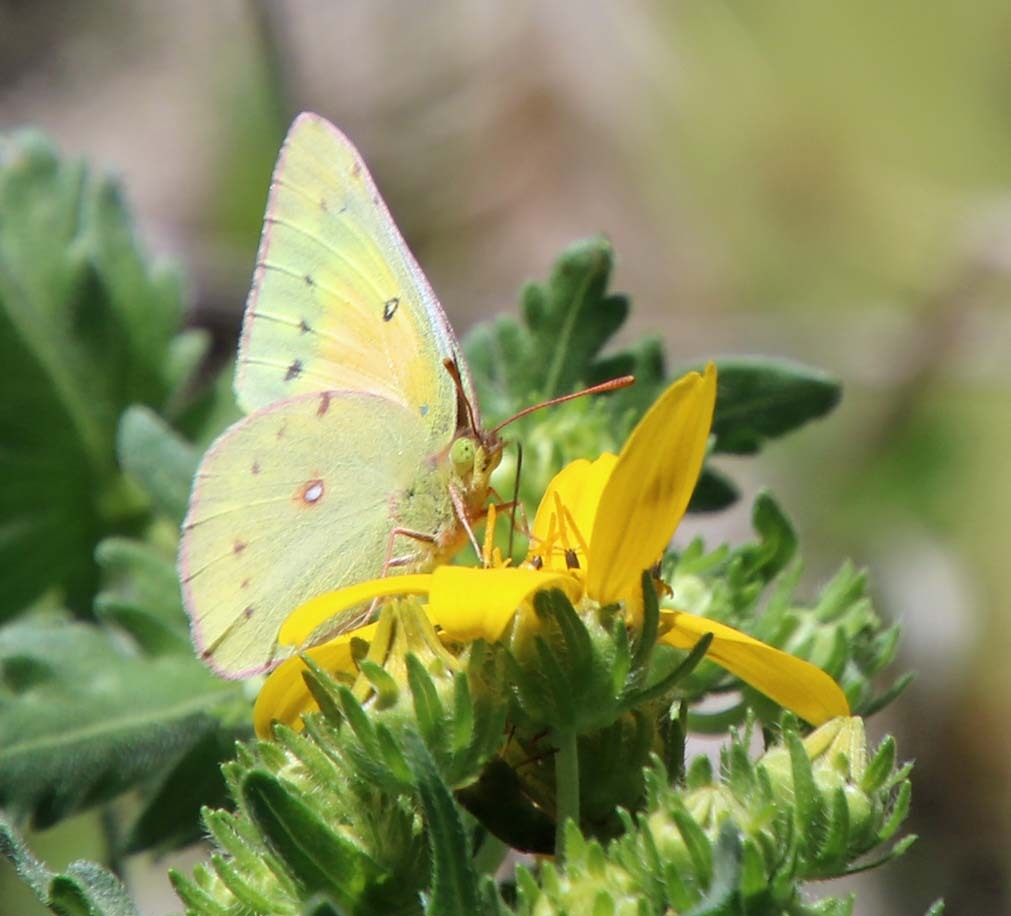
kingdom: Animalia
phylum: Arthropoda
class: Insecta
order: Lepidoptera
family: Pieridae
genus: Colias
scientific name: Colias eurytheme
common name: Alfalfa butterfly
